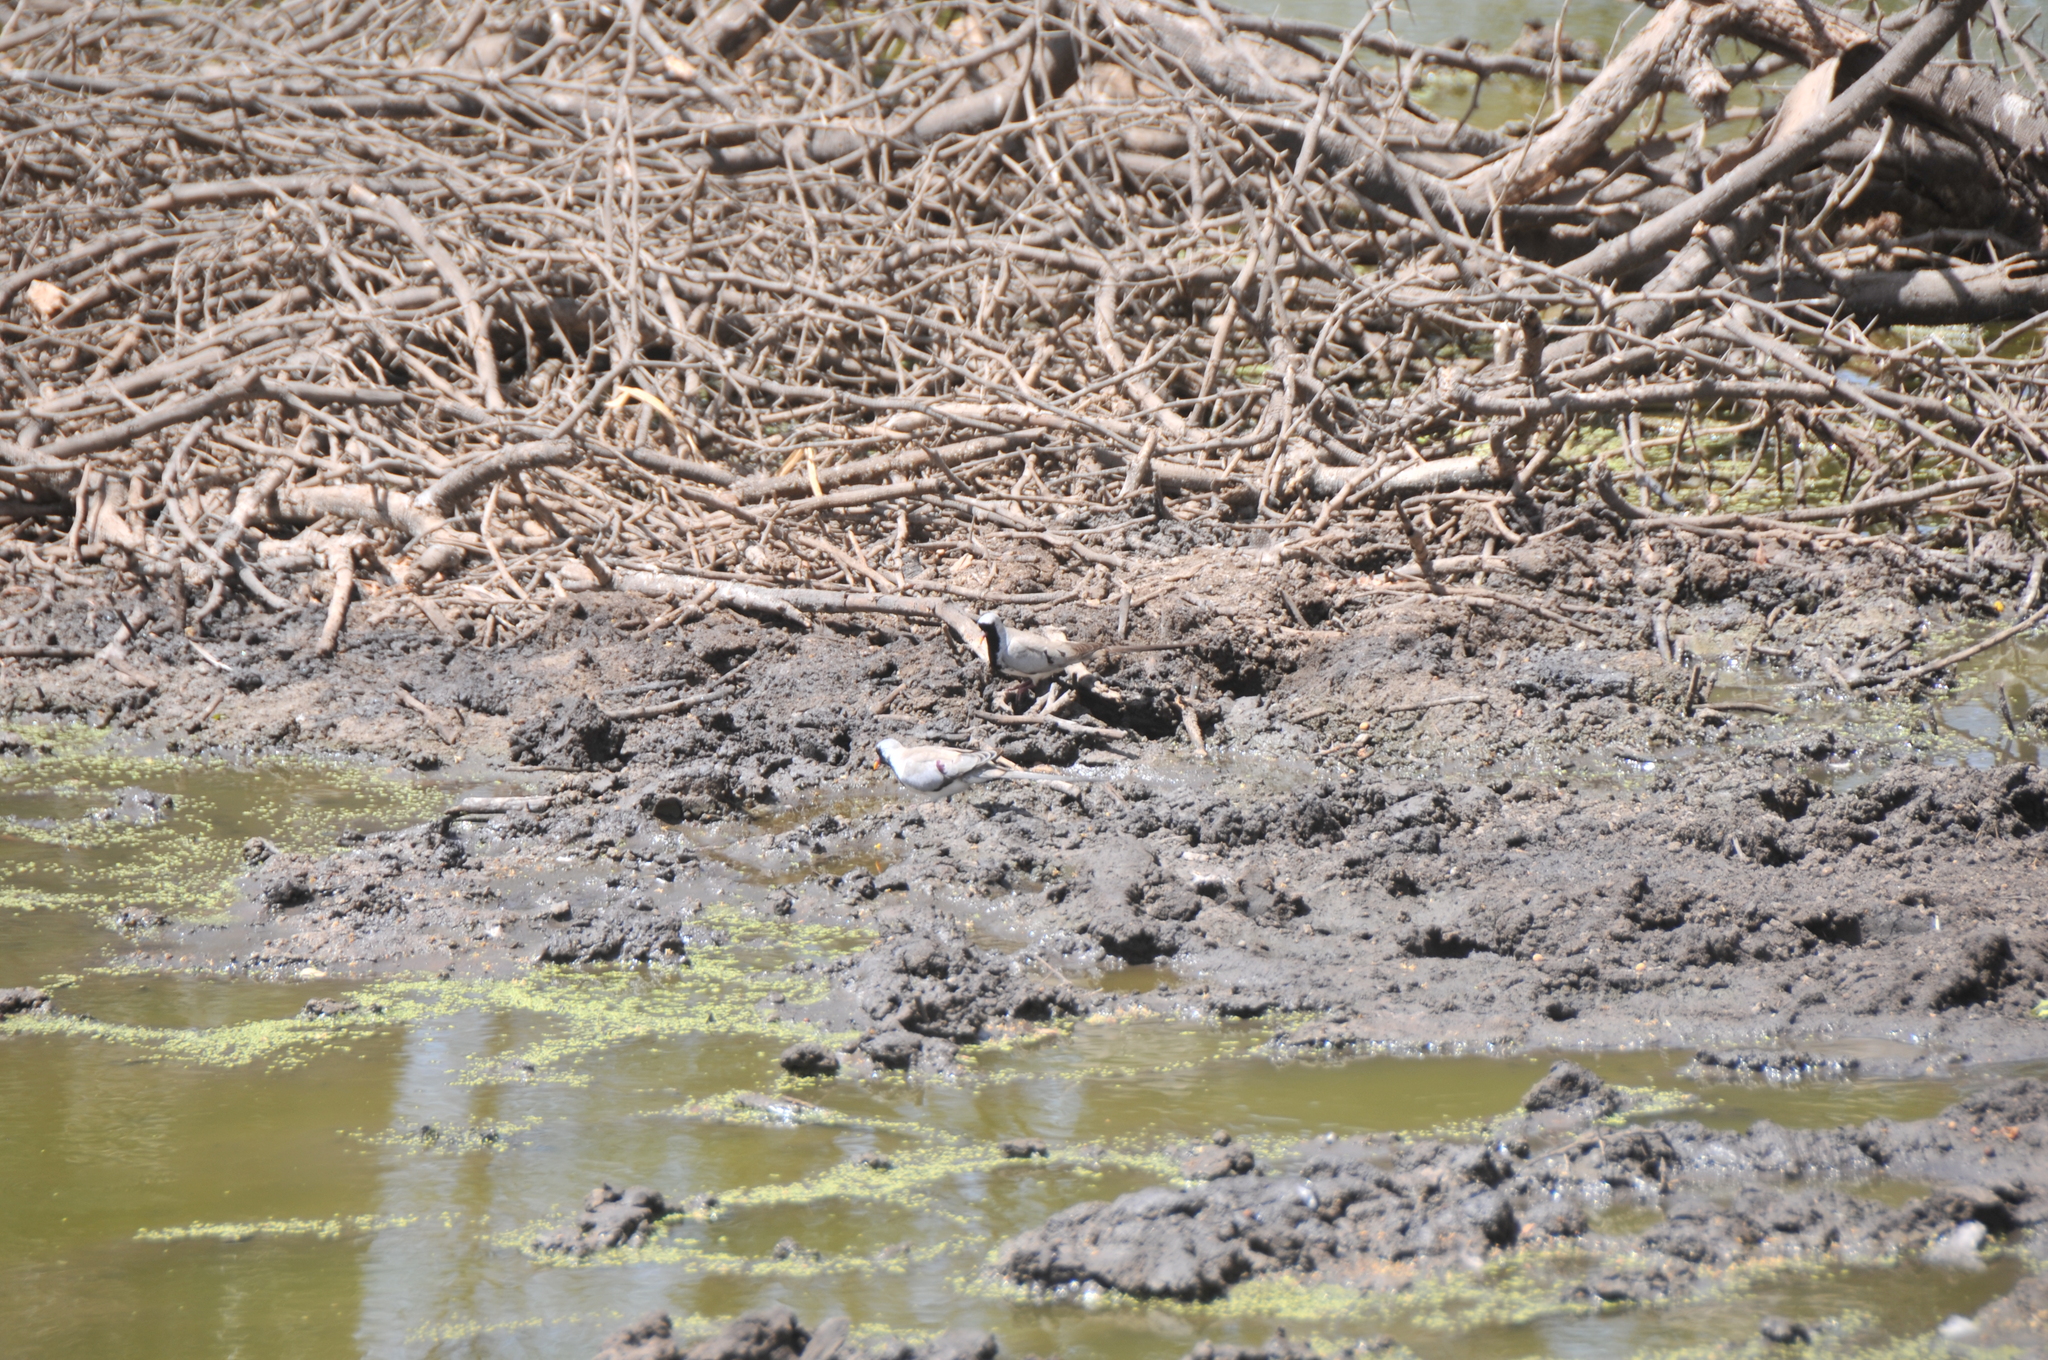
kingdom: Animalia
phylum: Chordata
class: Aves
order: Columbiformes
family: Columbidae
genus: Oena
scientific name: Oena capensis
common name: Namaqua dove
